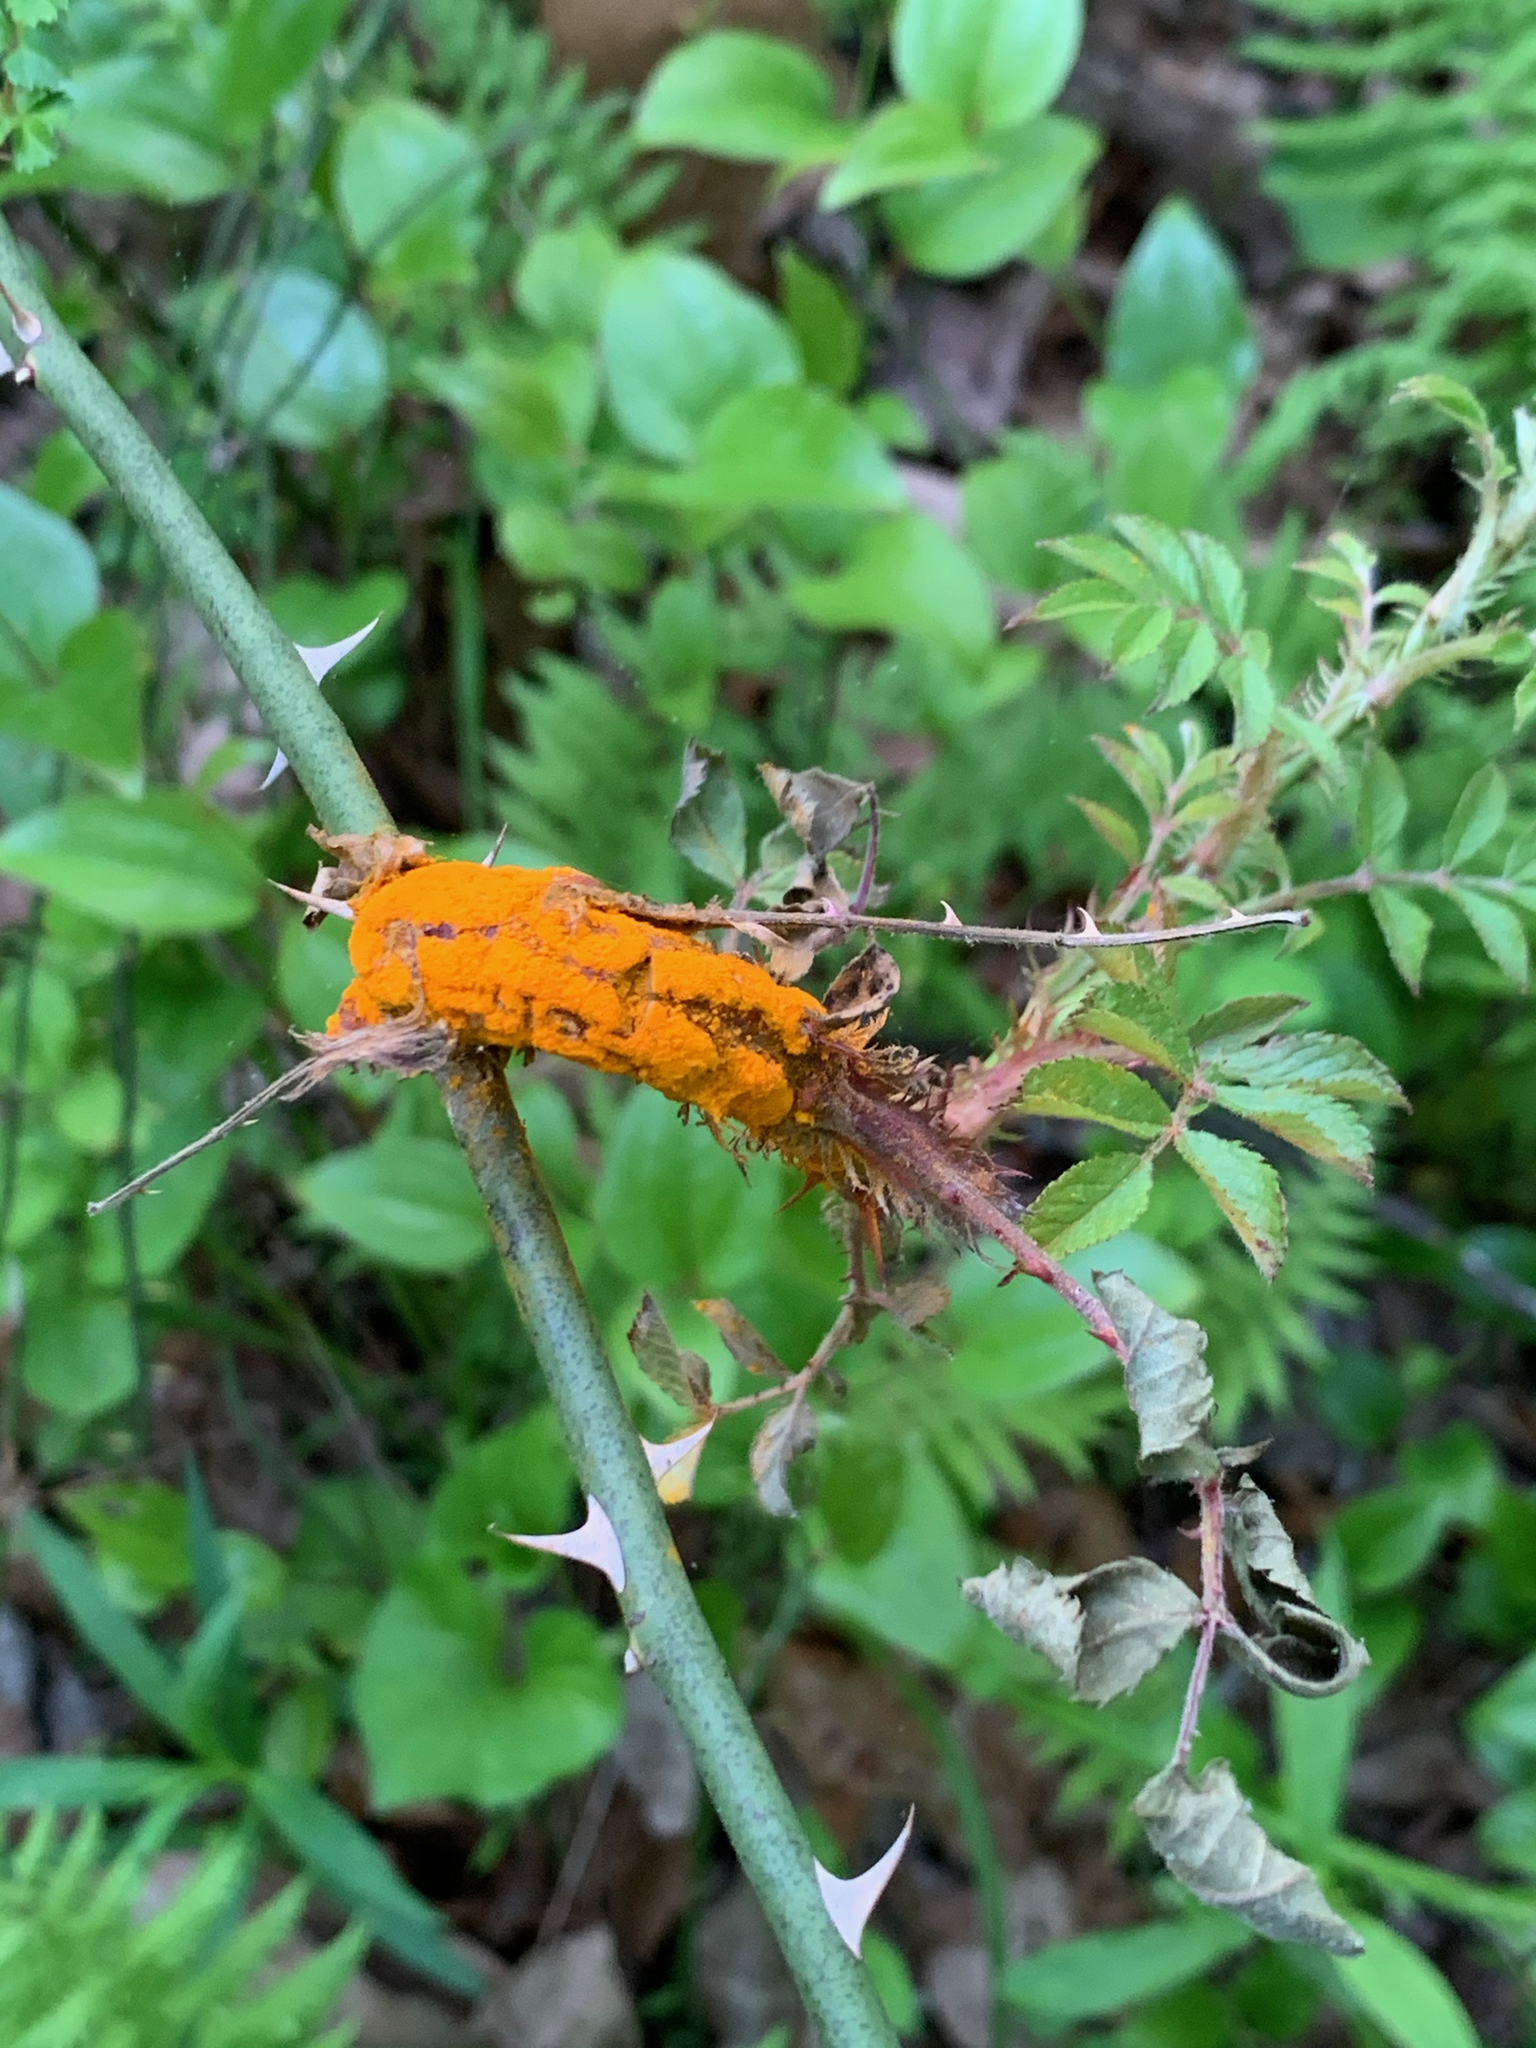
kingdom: Fungi
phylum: Basidiomycota
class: Pucciniomycetes
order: Pucciniales
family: Phragmidiaceae
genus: Phragmidium
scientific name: Phragmidium rosae-multiflorae
